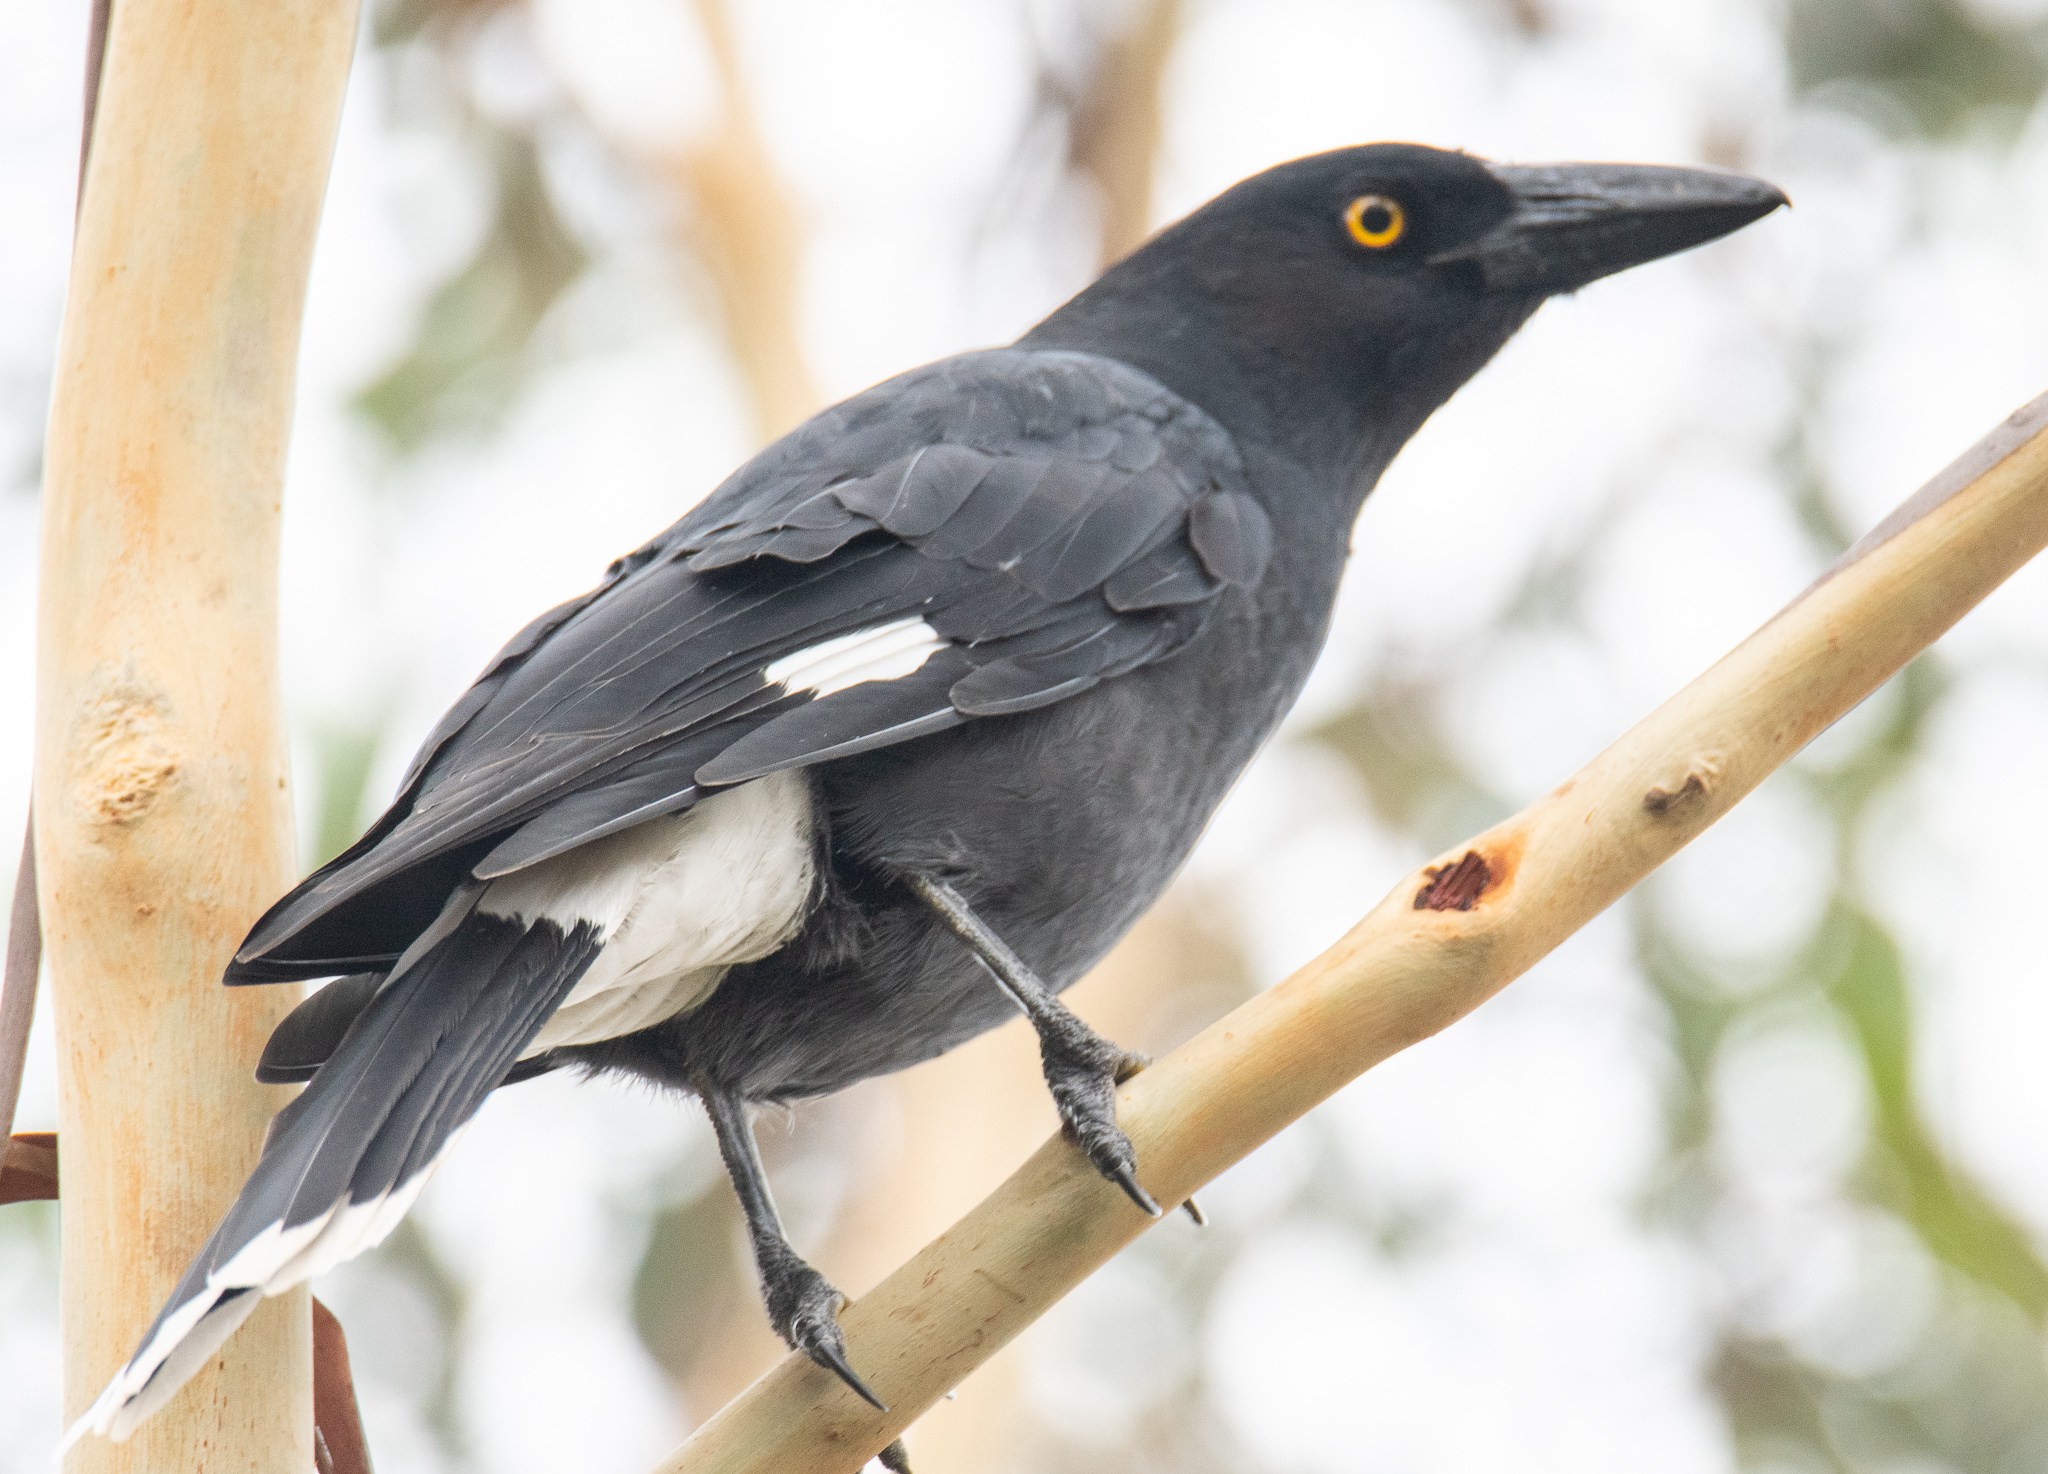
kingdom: Animalia
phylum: Chordata
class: Aves
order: Passeriformes
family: Cracticidae
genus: Strepera
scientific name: Strepera graculina
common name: Pied currawong
